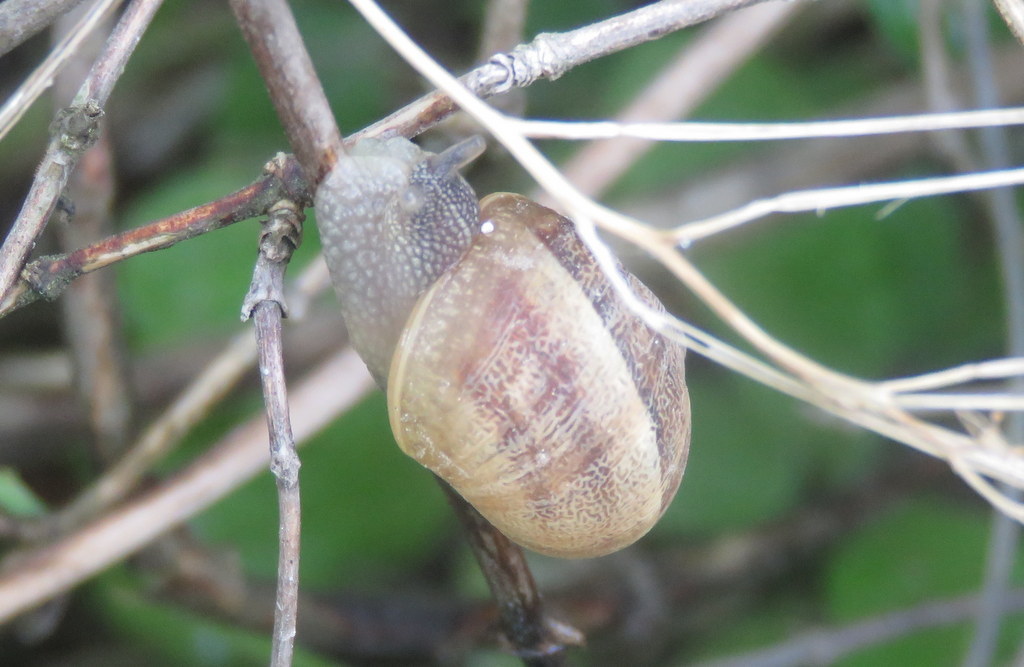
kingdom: Animalia
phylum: Mollusca
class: Gastropoda
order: Stylommatophora
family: Helicidae
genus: Cornu
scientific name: Cornu aspersum
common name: Brown garden snail
